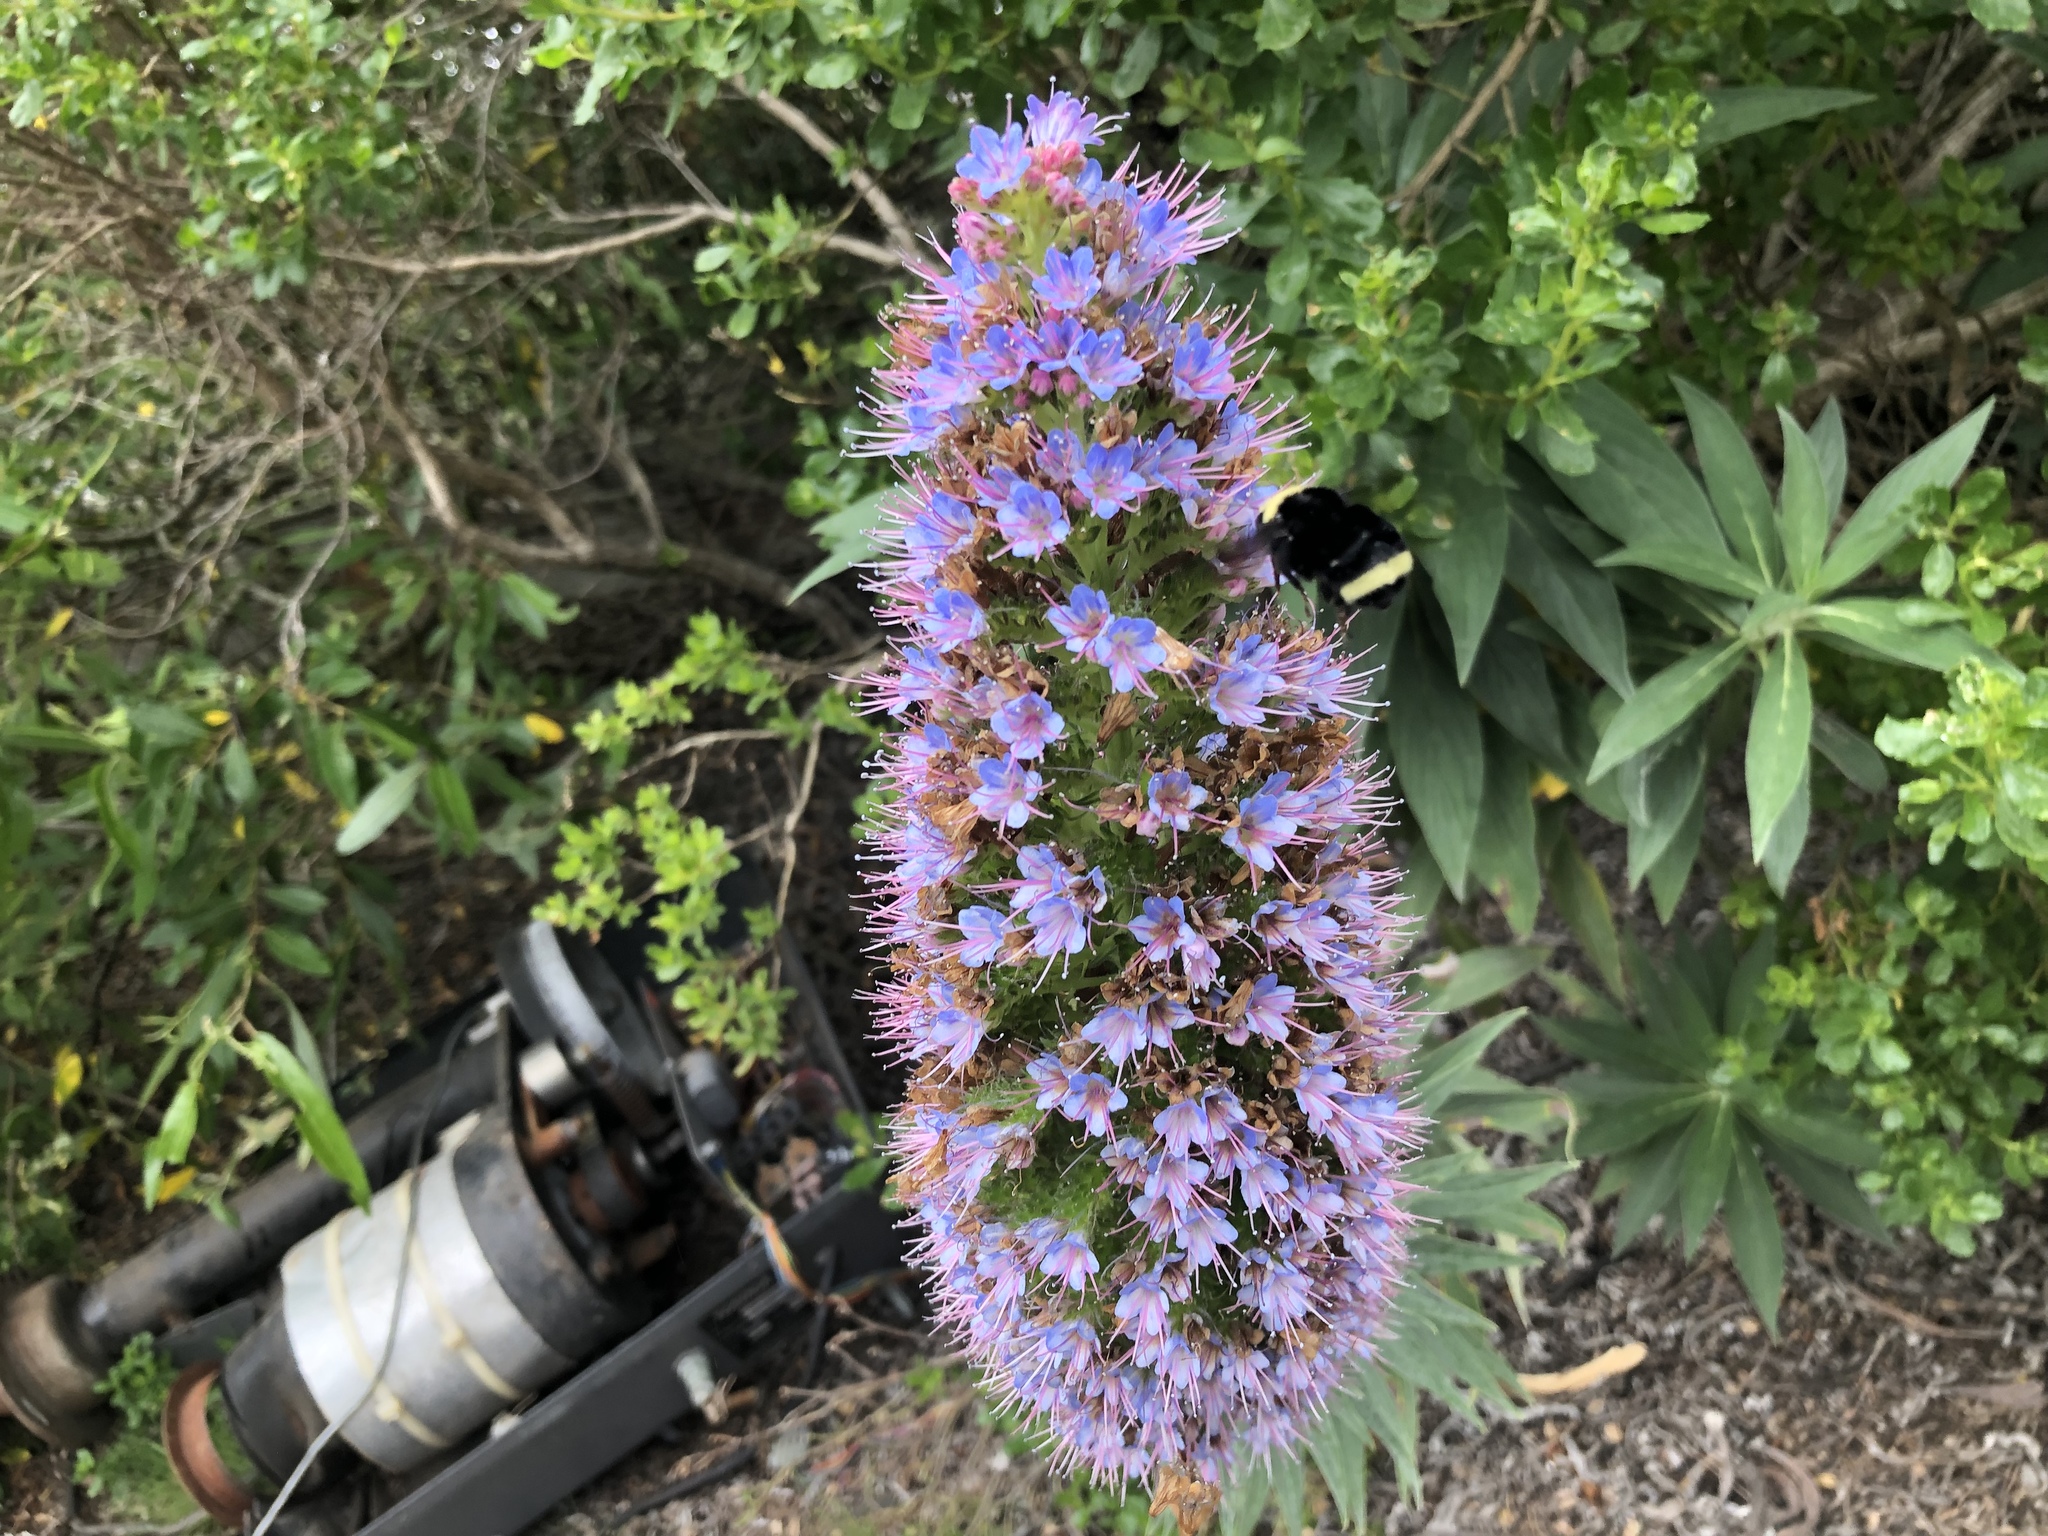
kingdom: Animalia
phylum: Arthropoda
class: Insecta
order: Hymenoptera
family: Apidae
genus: Bombus
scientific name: Bombus vosnesenskii
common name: Vosnesensky bumble bee
